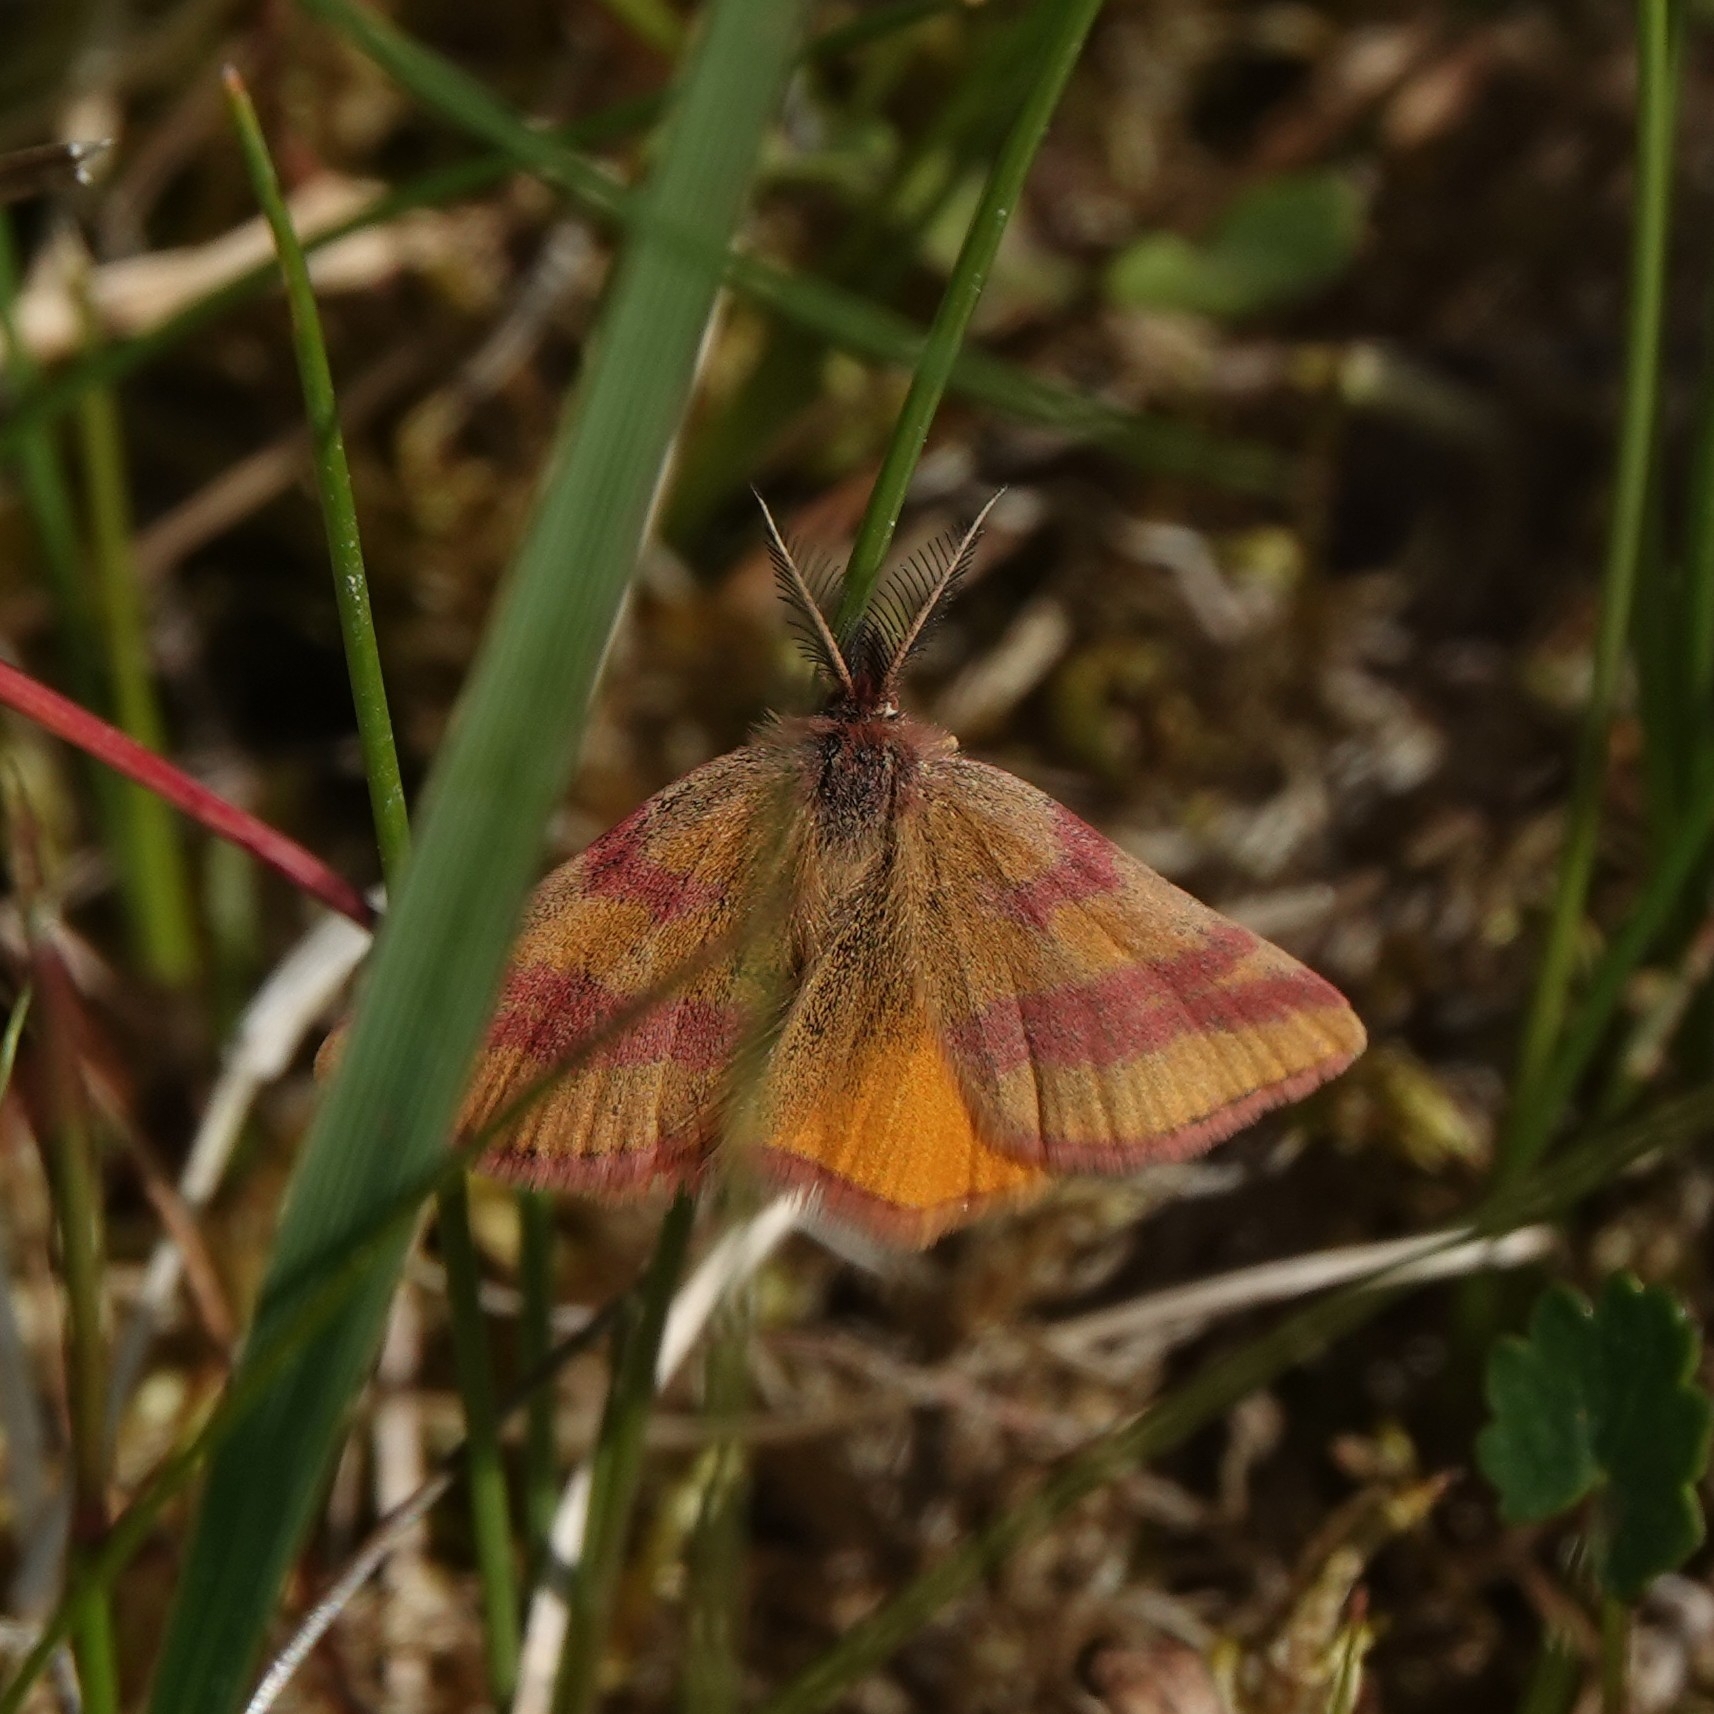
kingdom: Animalia
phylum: Arthropoda
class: Insecta
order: Lepidoptera
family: Geometridae
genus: Lythria
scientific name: Lythria cruentaria
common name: Purple-barred yellow
